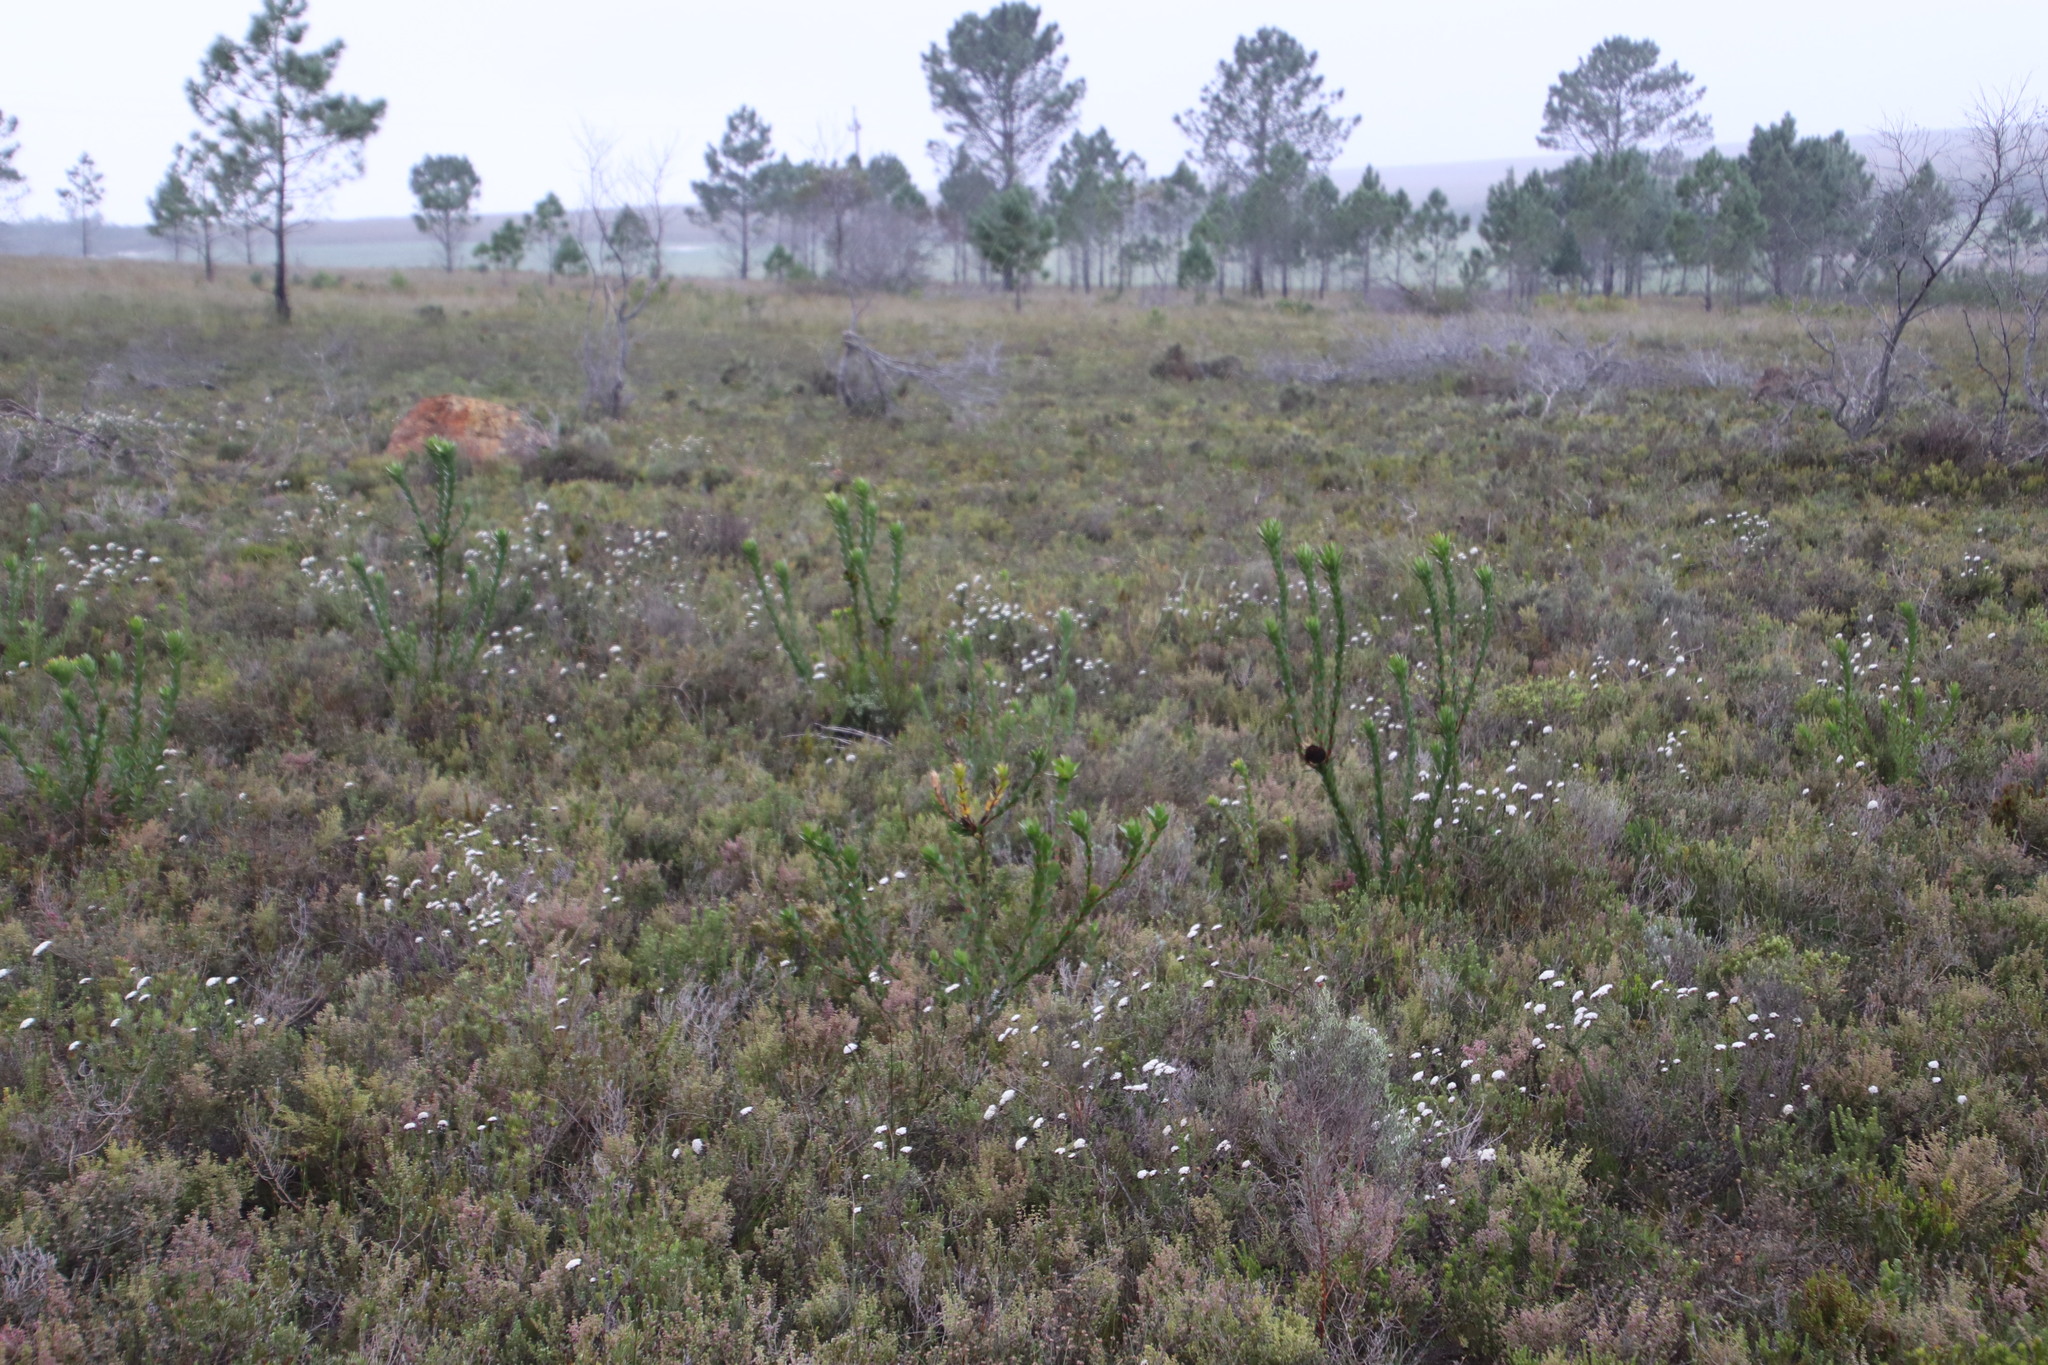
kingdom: Plantae
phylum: Tracheophyta
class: Magnoliopsida
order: Proteales
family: Proteaceae
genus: Leucadendron
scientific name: Leucadendron elimense
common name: Elim conebush
